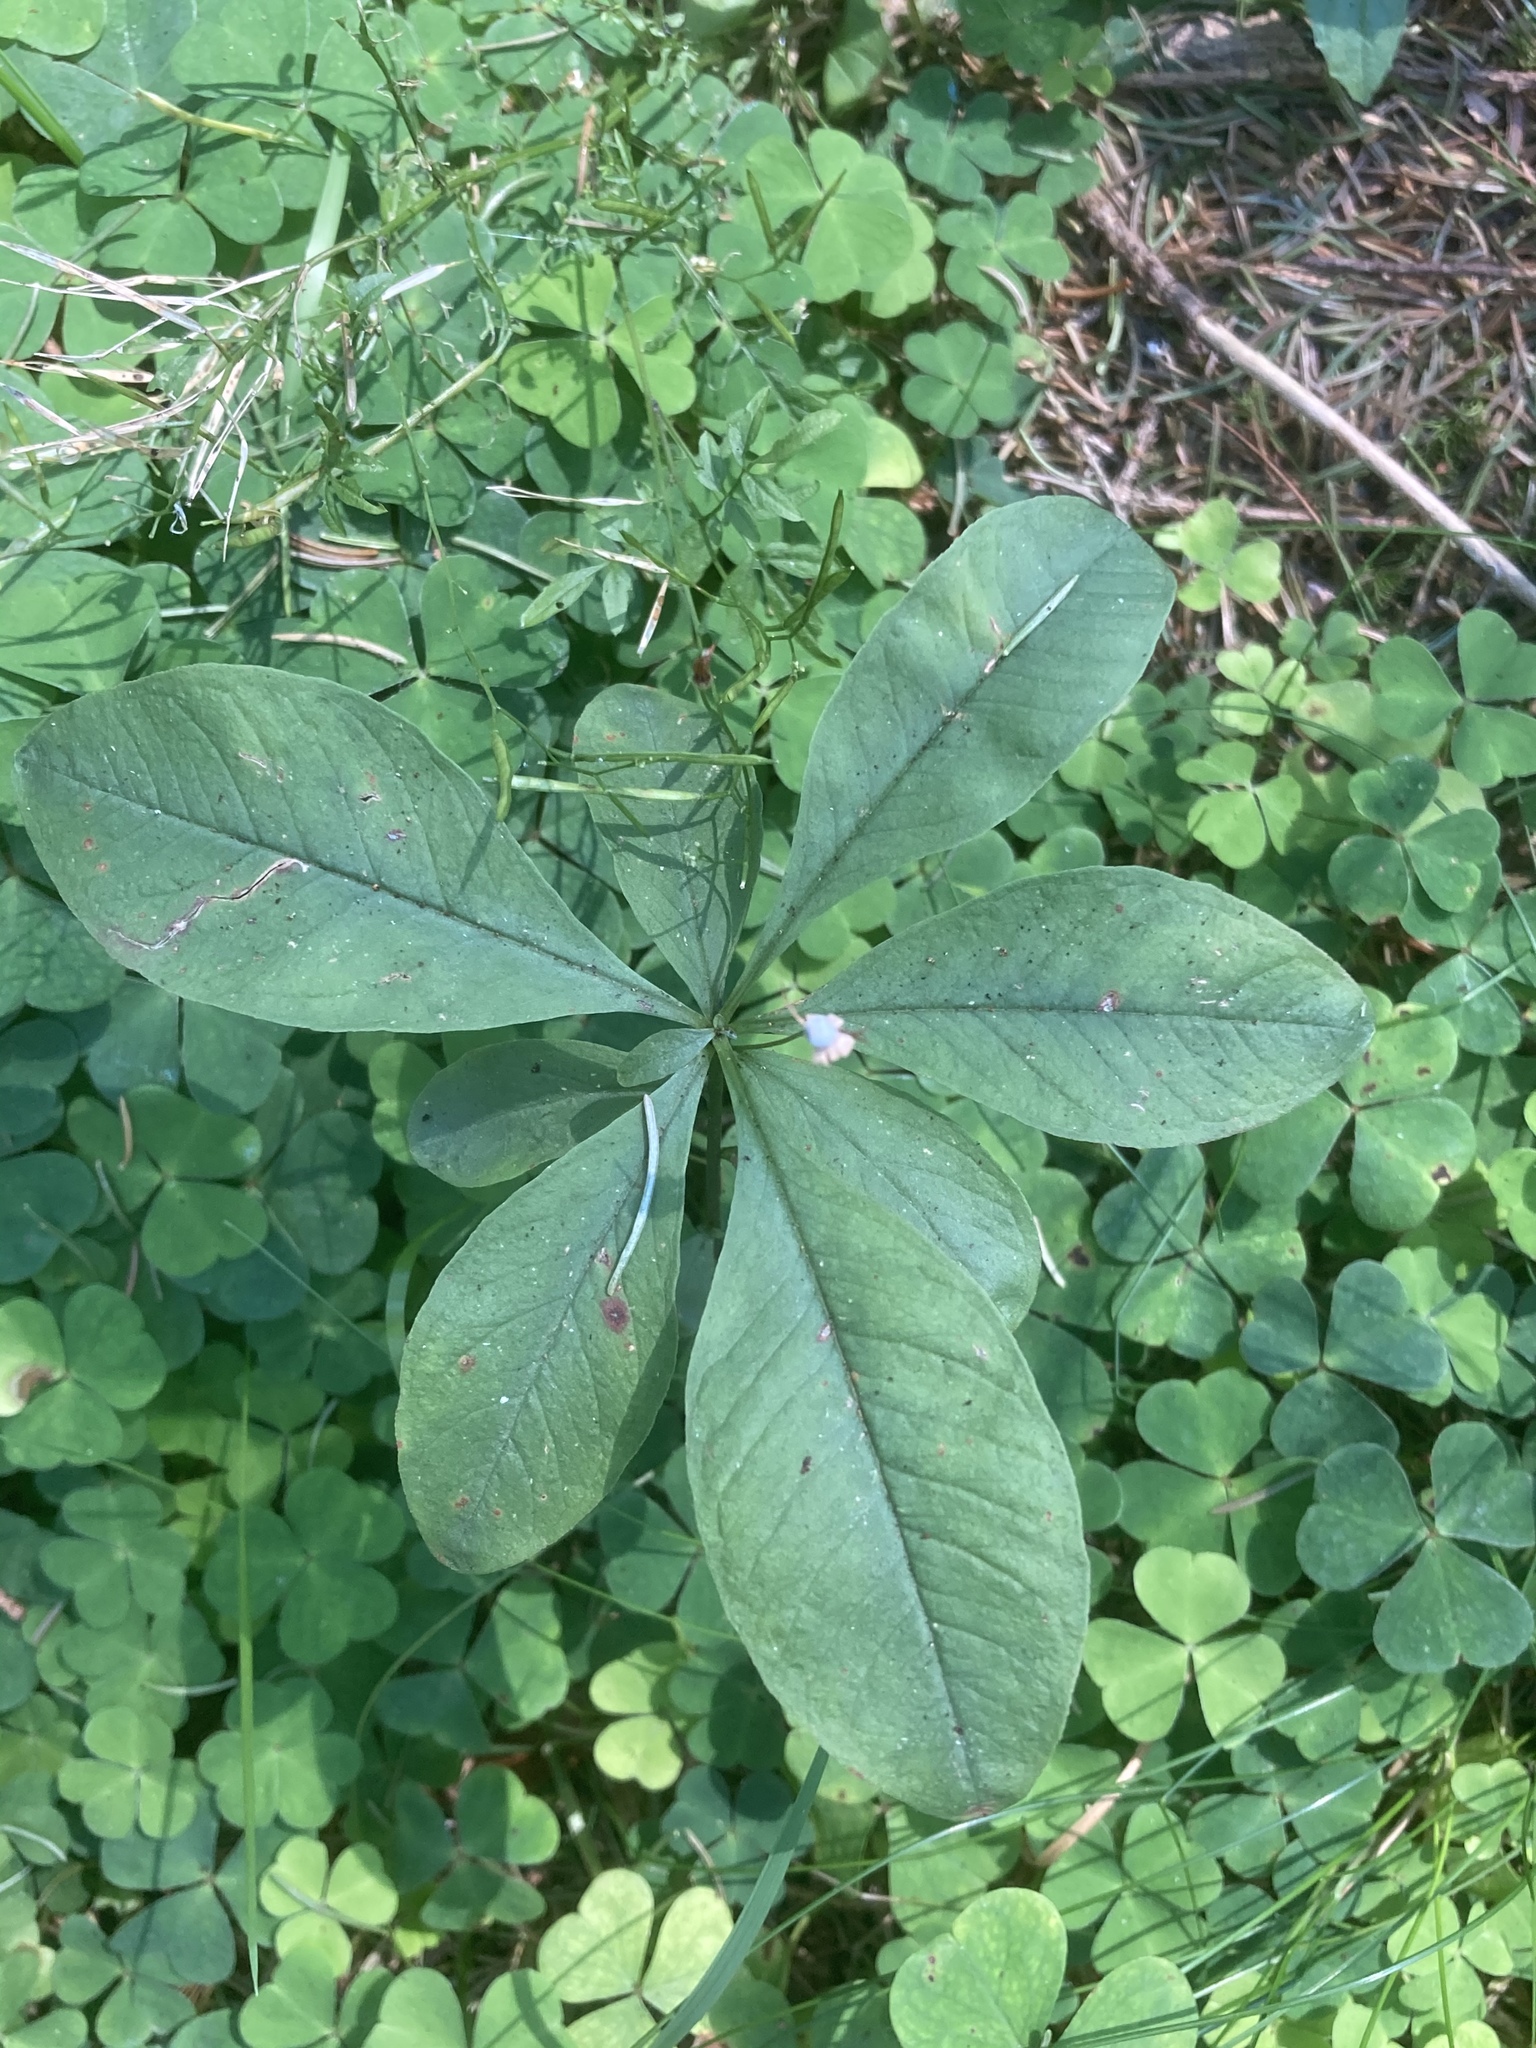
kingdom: Plantae
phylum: Tracheophyta
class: Magnoliopsida
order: Ericales
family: Primulaceae
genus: Lysimachia
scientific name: Lysimachia europaea
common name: Arctic starflower
